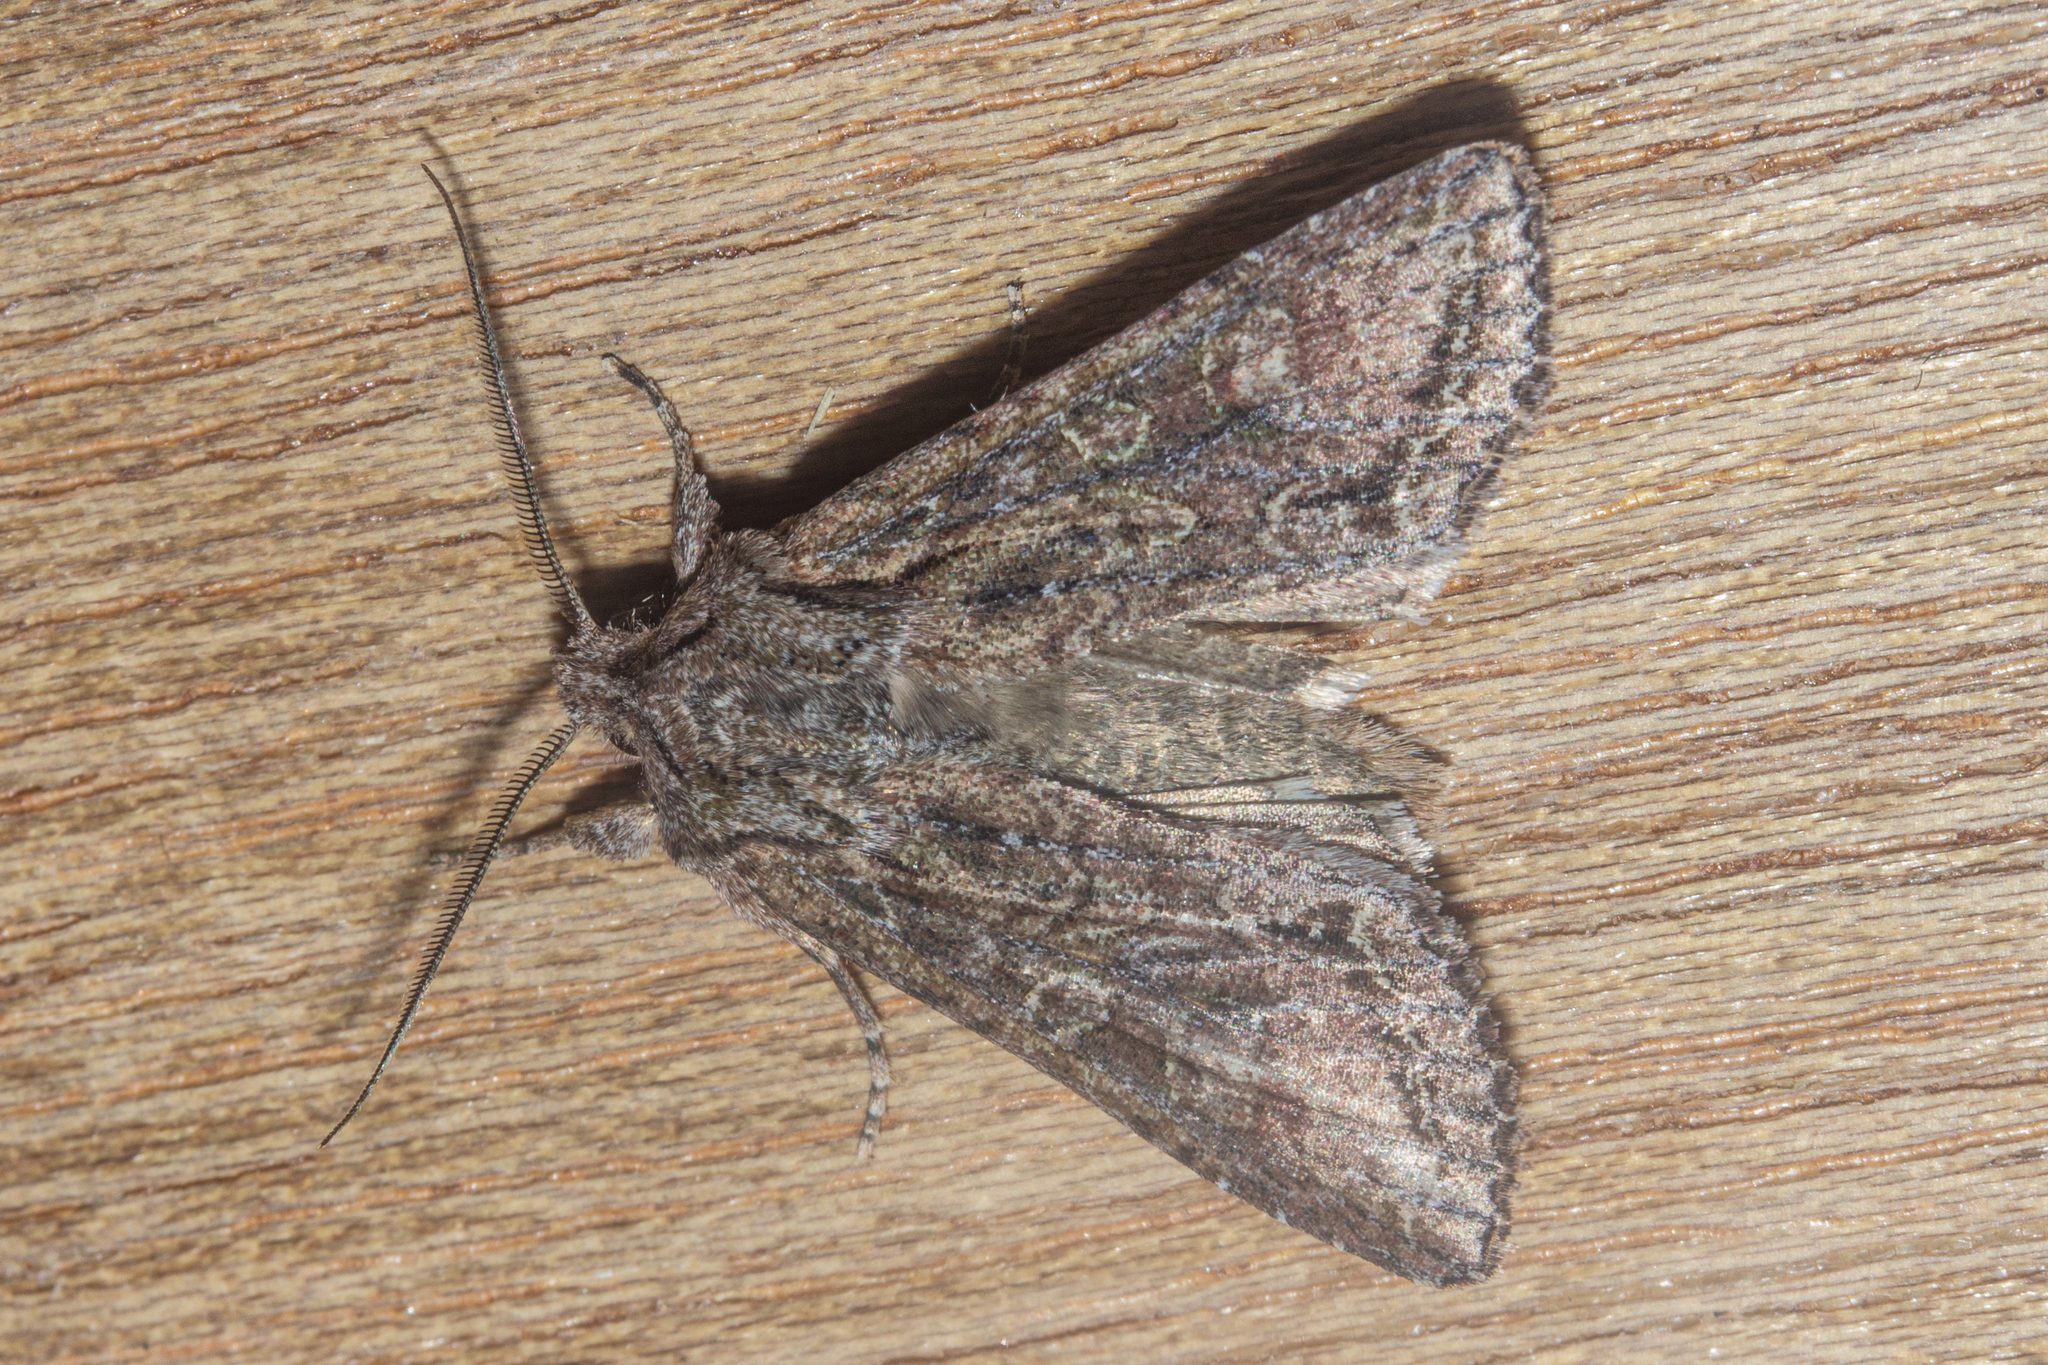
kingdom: Animalia
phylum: Arthropoda
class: Insecta
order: Lepidoptera
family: Noctuidae
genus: Ichneutica
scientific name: Ichneutica mutans
